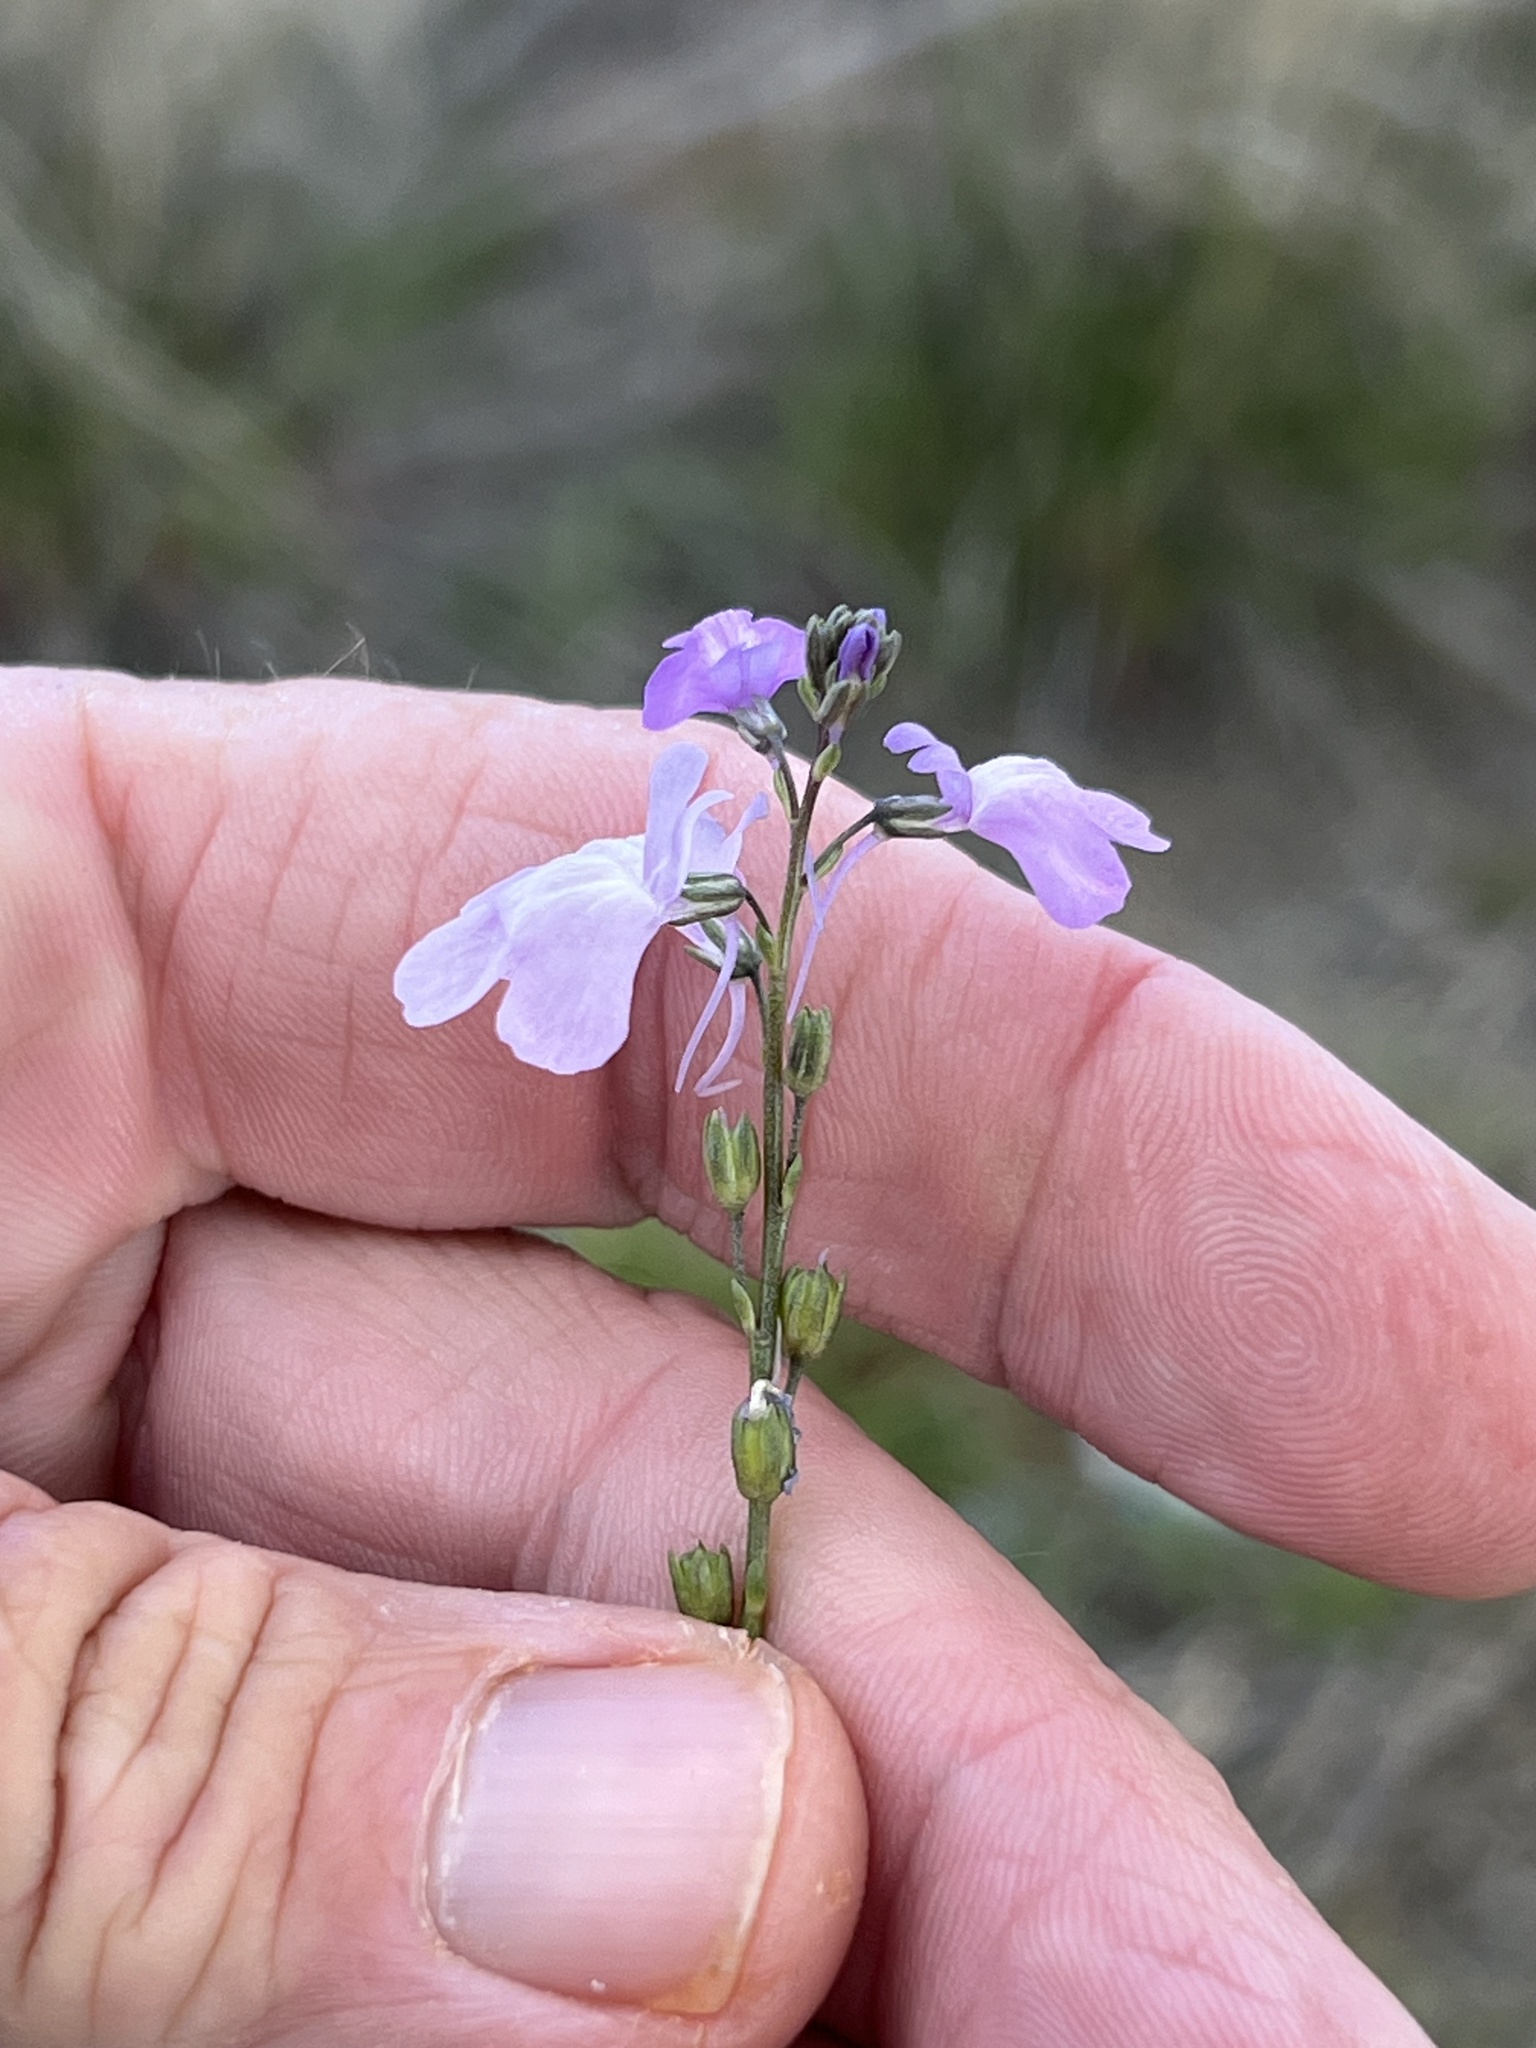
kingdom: Plantae
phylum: Tracheophyta
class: Magnoliopsida
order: Lamiales
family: Plantaginaceae
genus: Nuttallanthus
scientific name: Nuttallanthus texanus
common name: Texas toadflax
